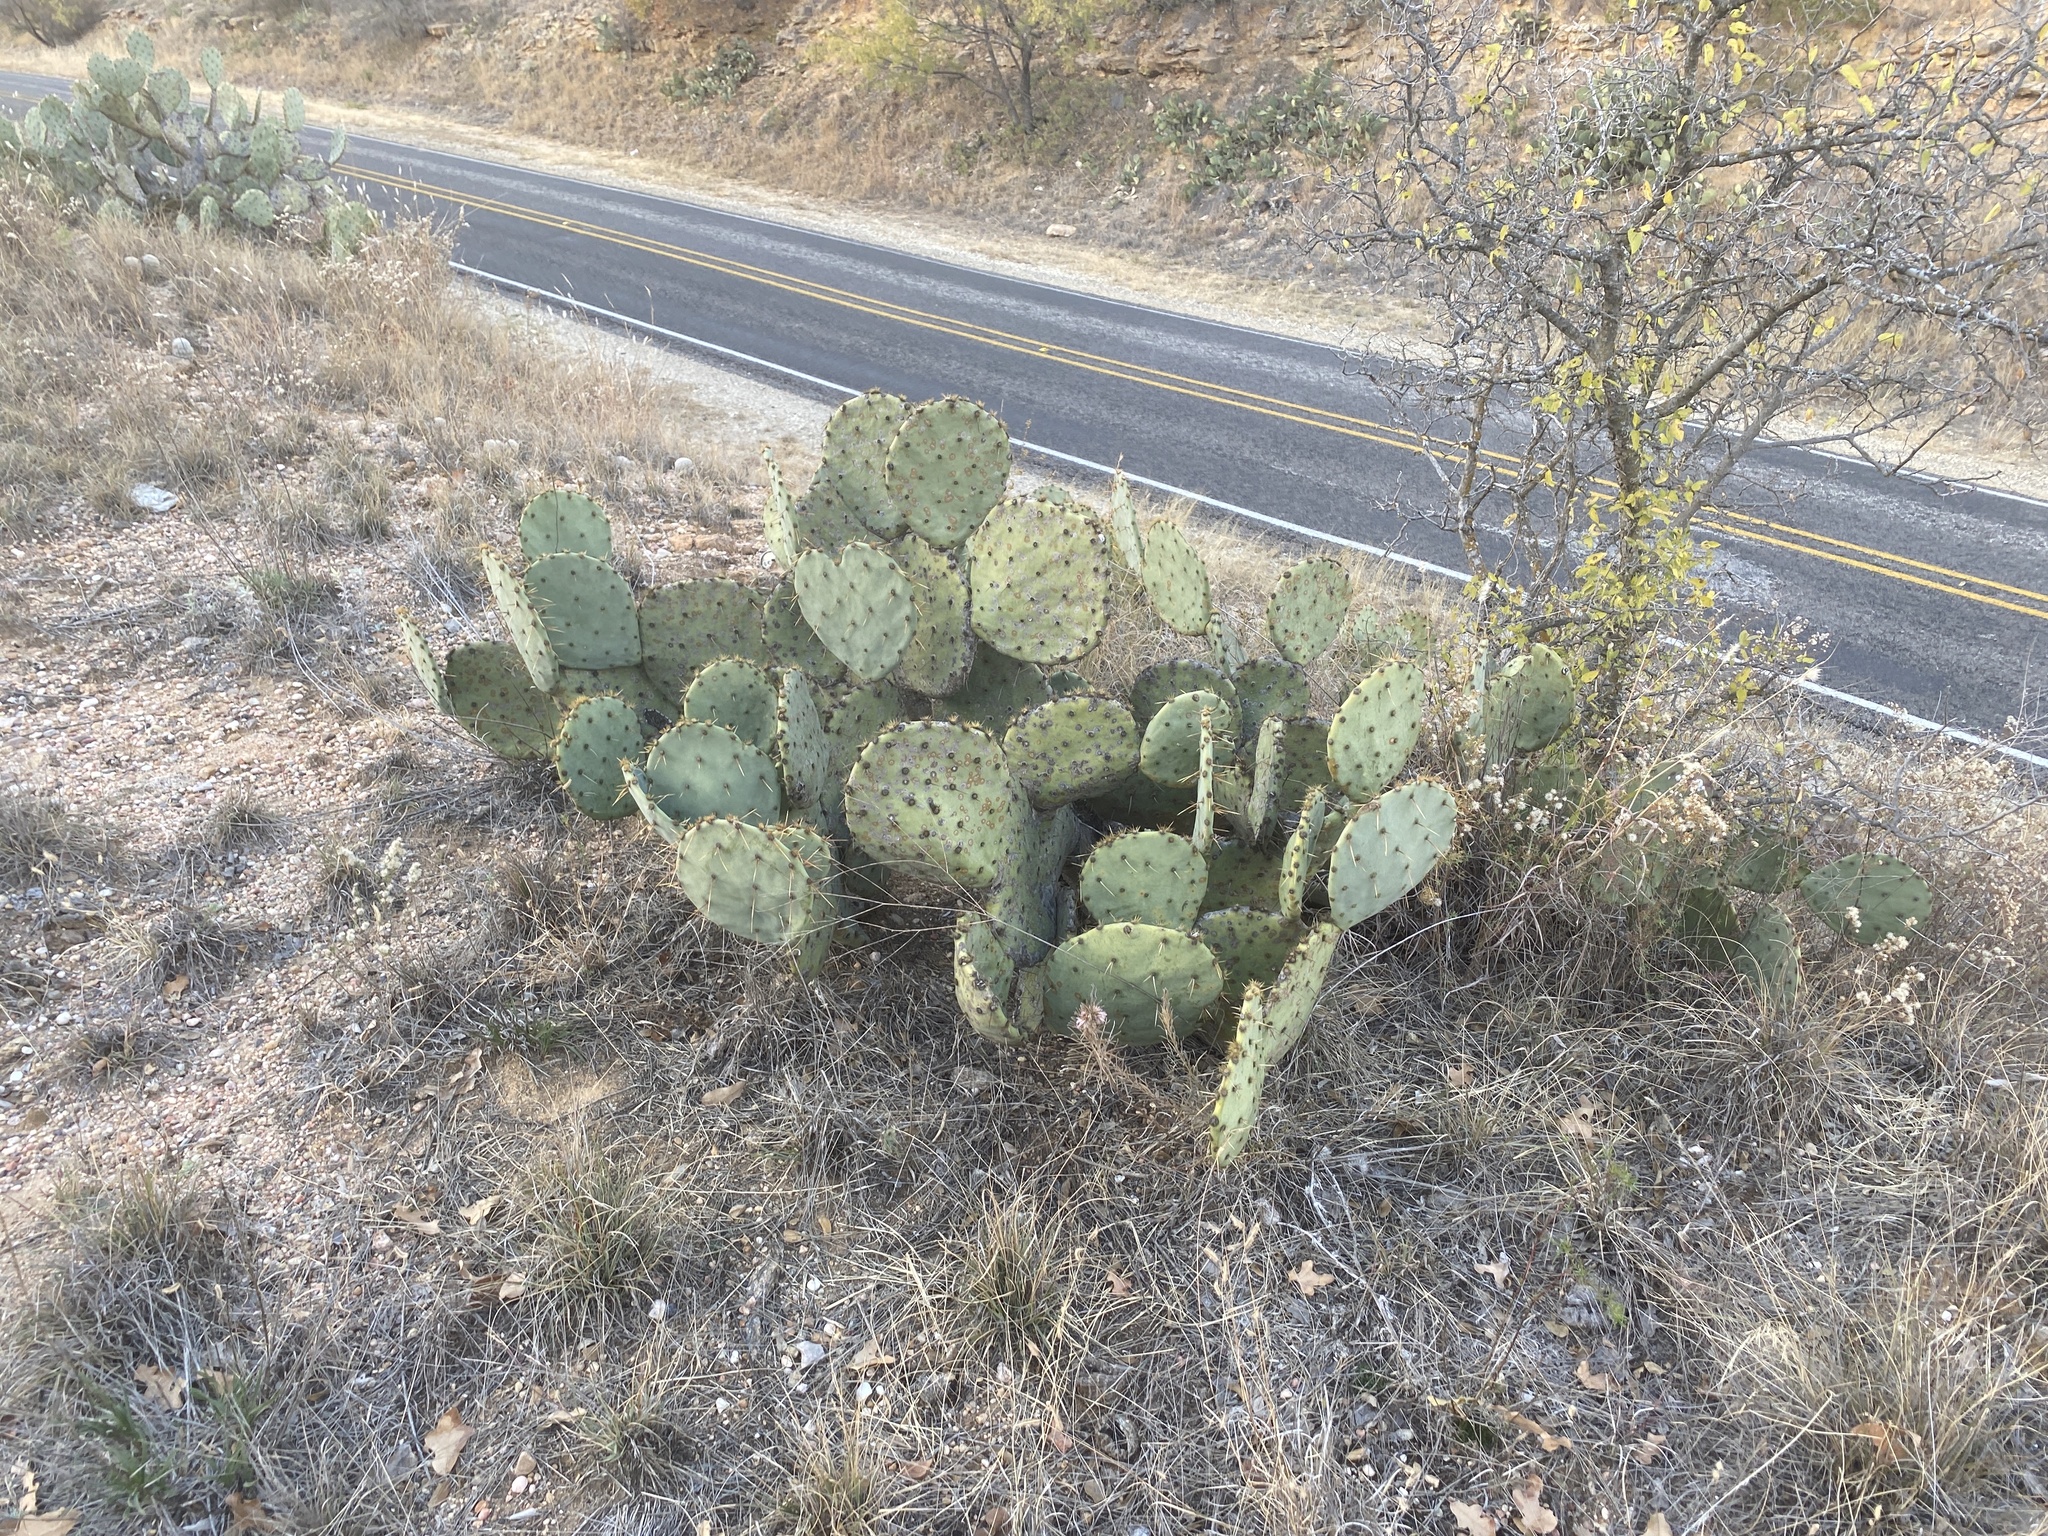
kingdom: Plantae
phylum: Tracheophyta
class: Magnoliopsida
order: Caryophyllales
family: Cactaceae
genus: Opuntia
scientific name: Opuntia engelmannii
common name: Cactus-apple
